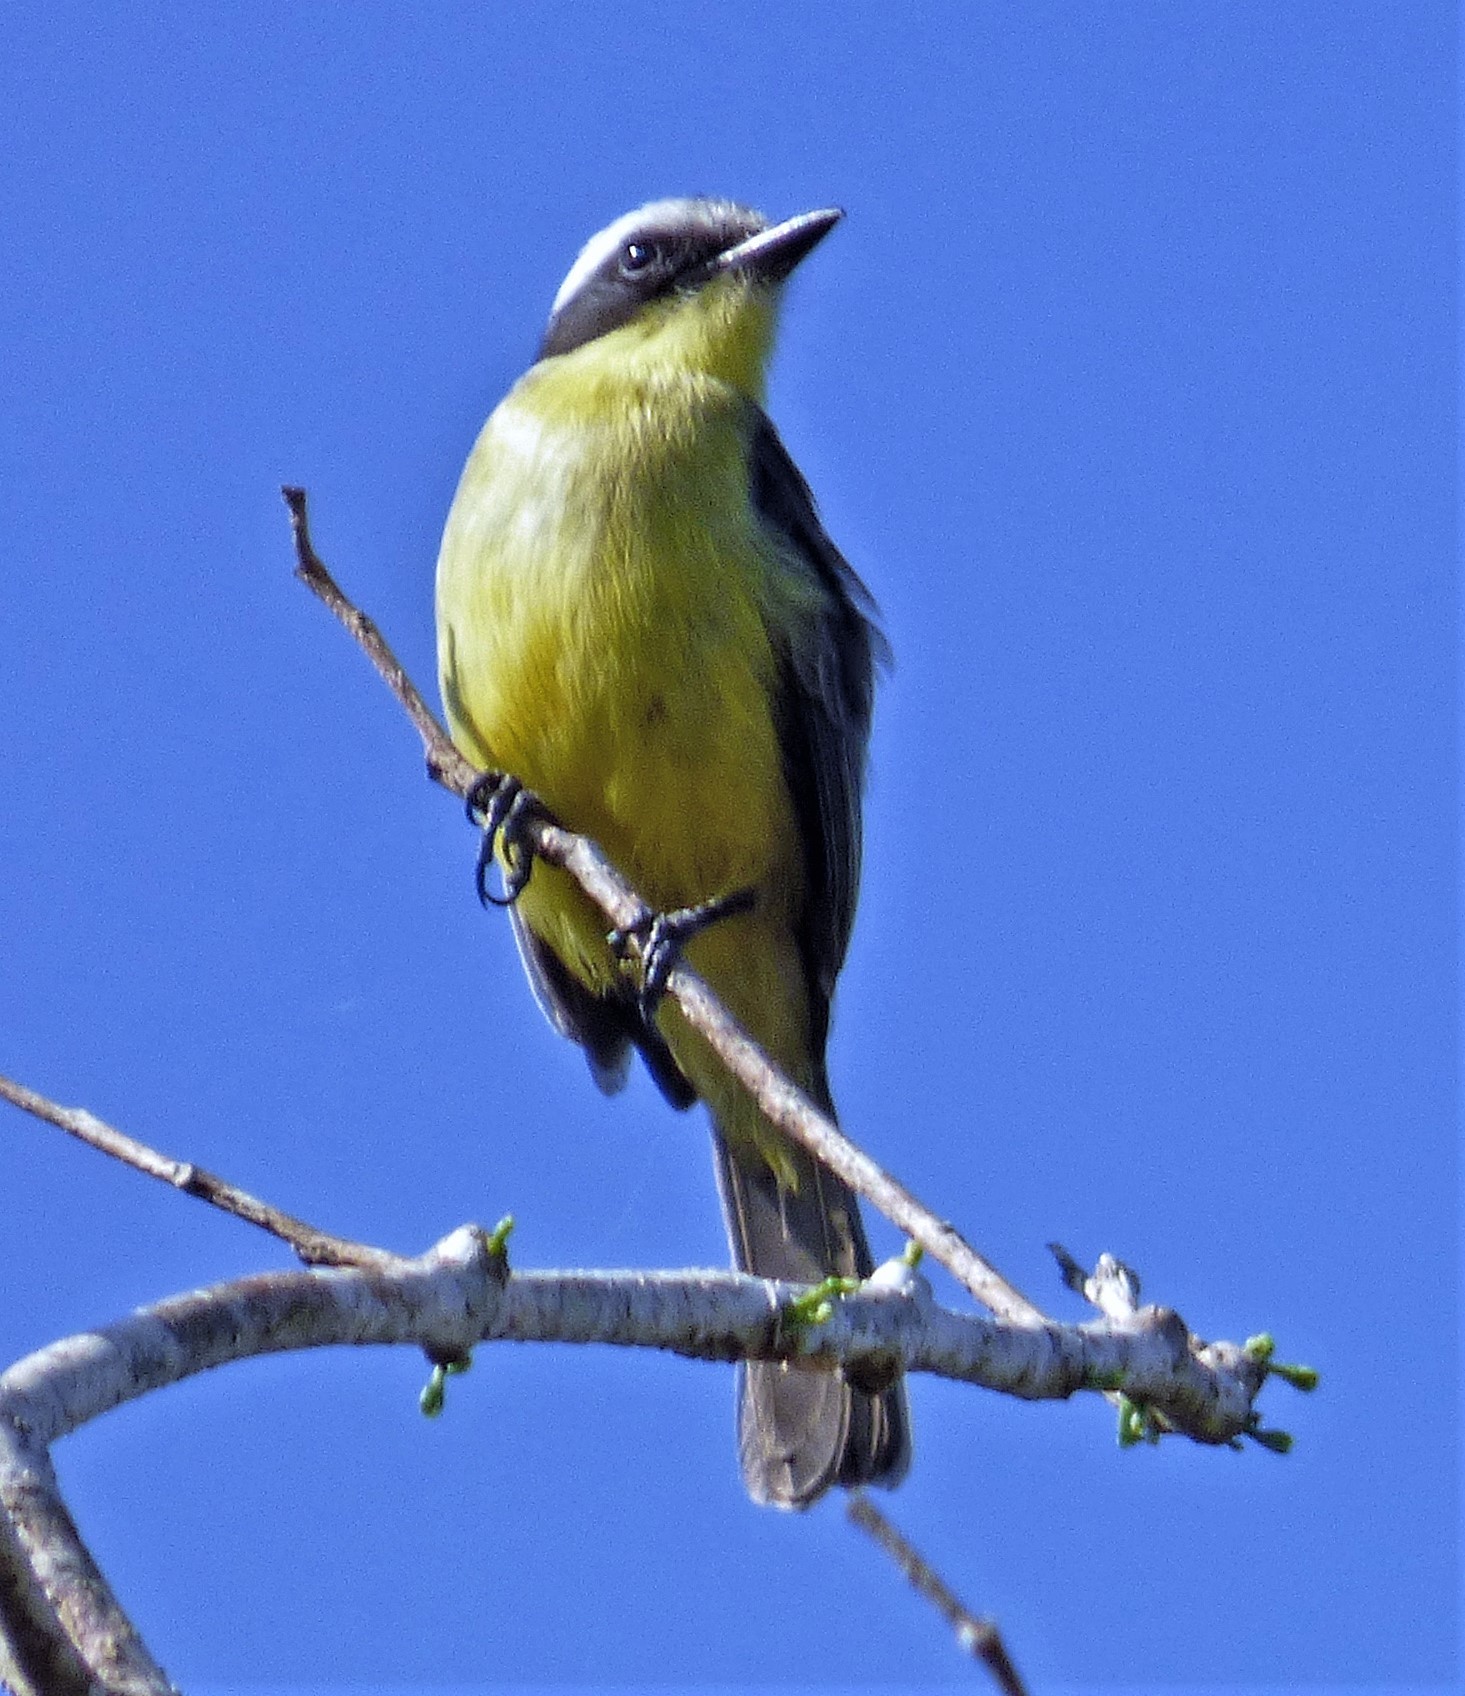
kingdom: Animalia
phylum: Chordata
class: Aves
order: Passeriformes
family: Tyrannidae
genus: Conopias
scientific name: Conopias trivirgatus
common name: Three-striped flycatcher
